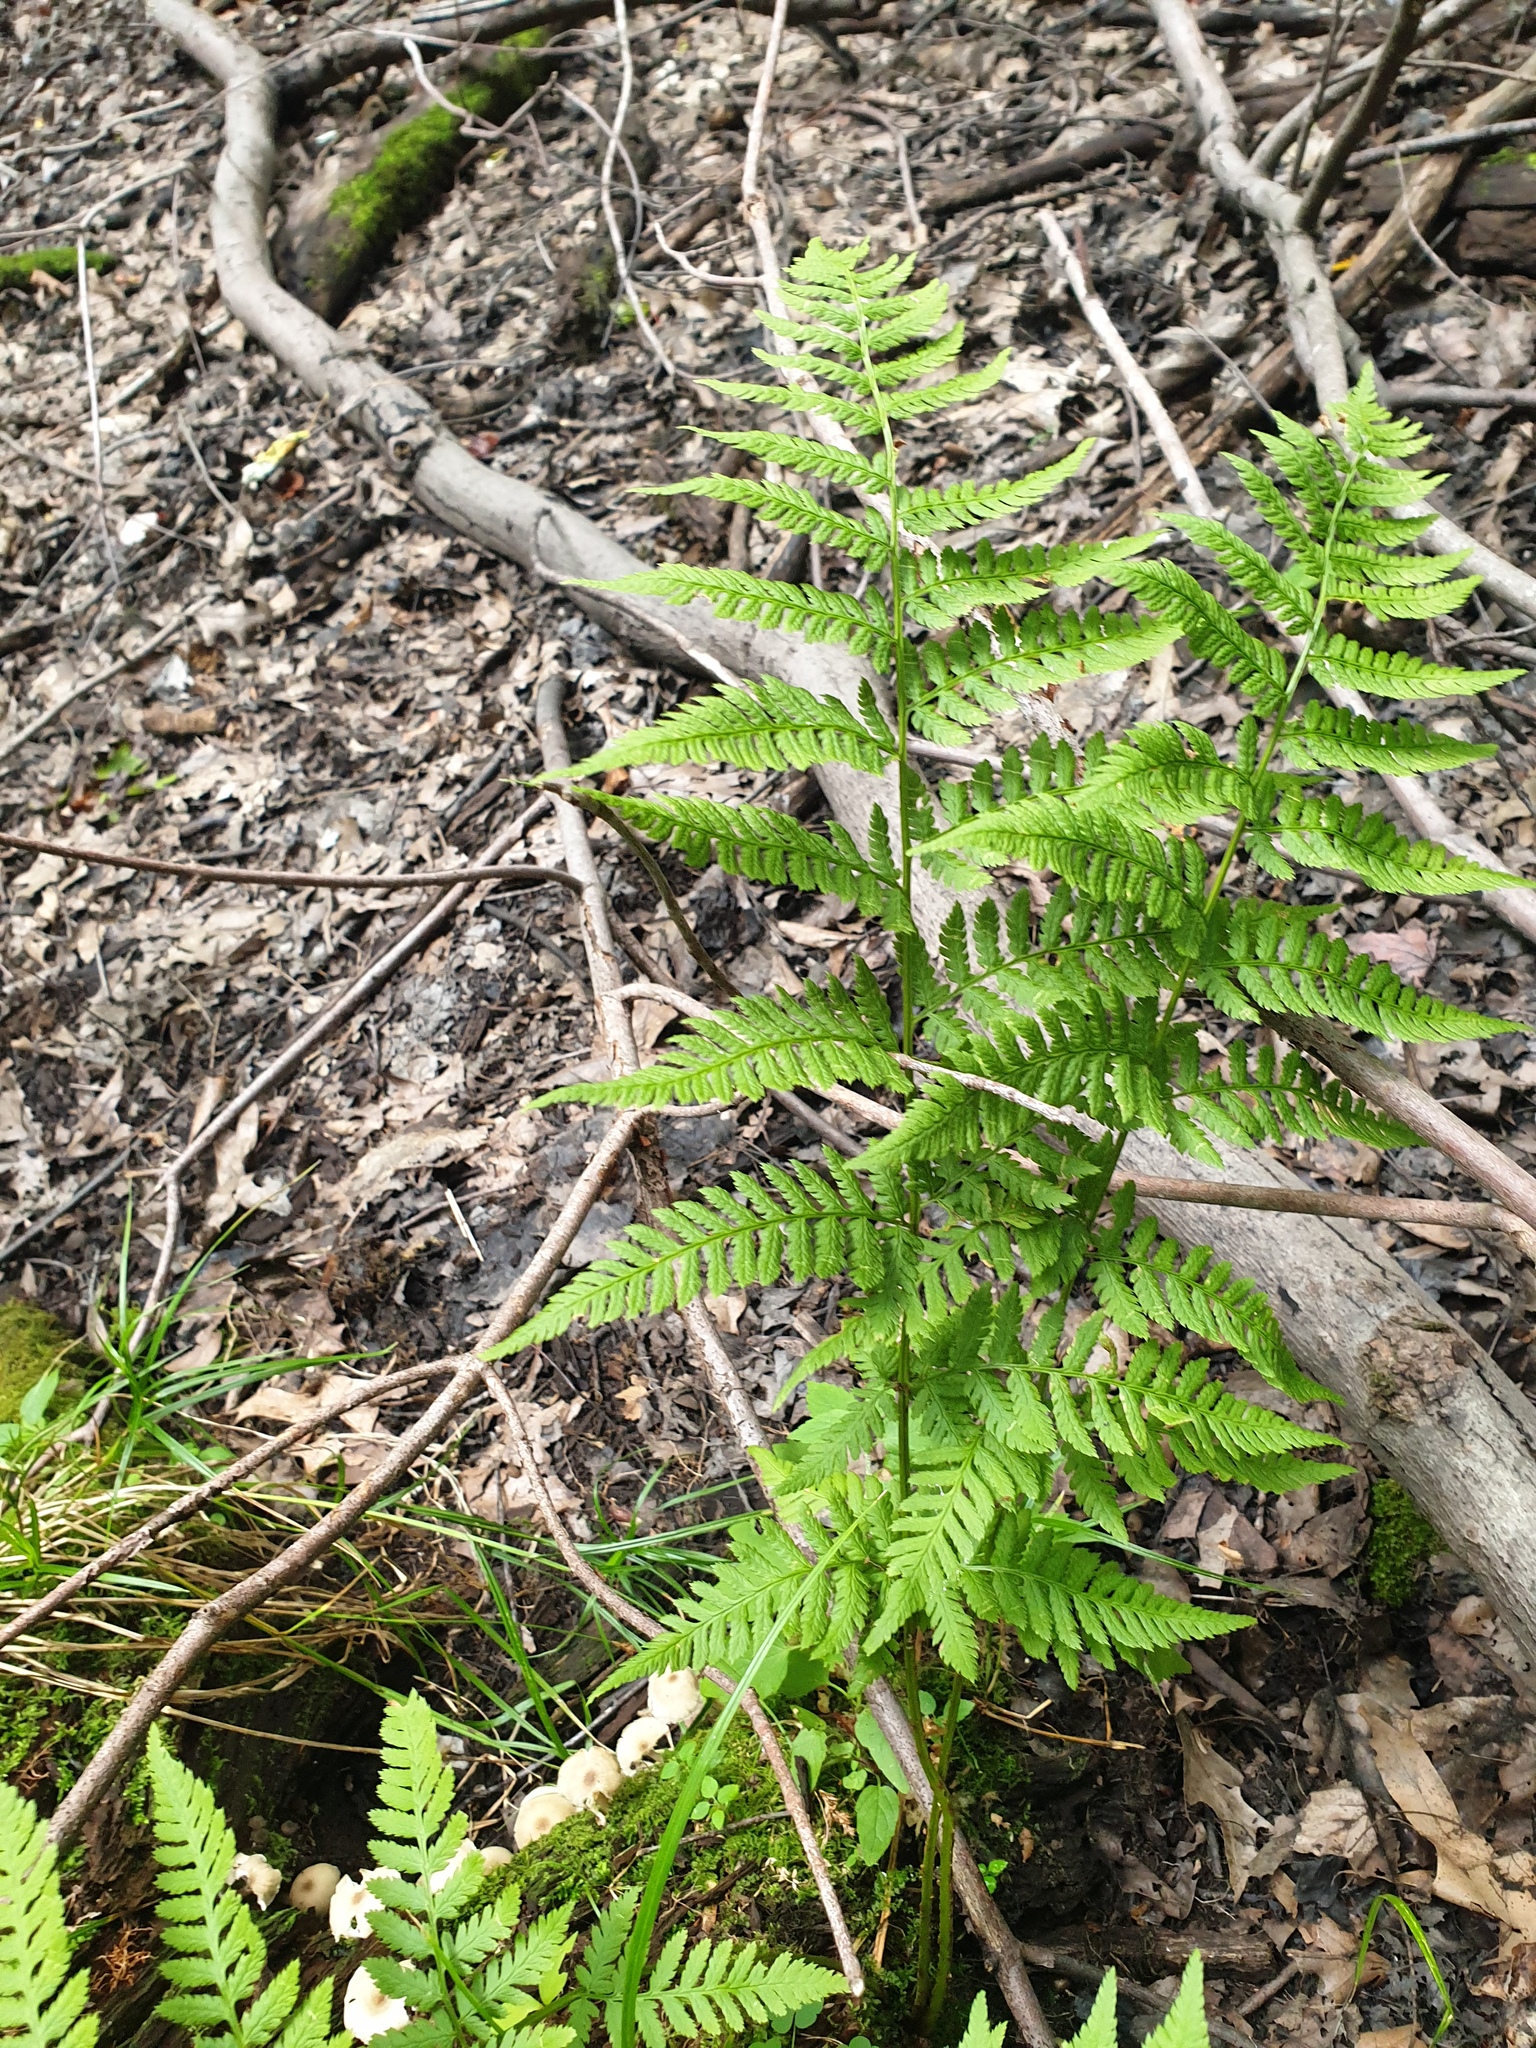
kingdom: Plantae
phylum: Tracheophyta
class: Polypodiopsida
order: Polypodiales
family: Dryopteridaceae
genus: Dryopteris
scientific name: Dryopteris carthusiana
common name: Narrow buckler-fern
